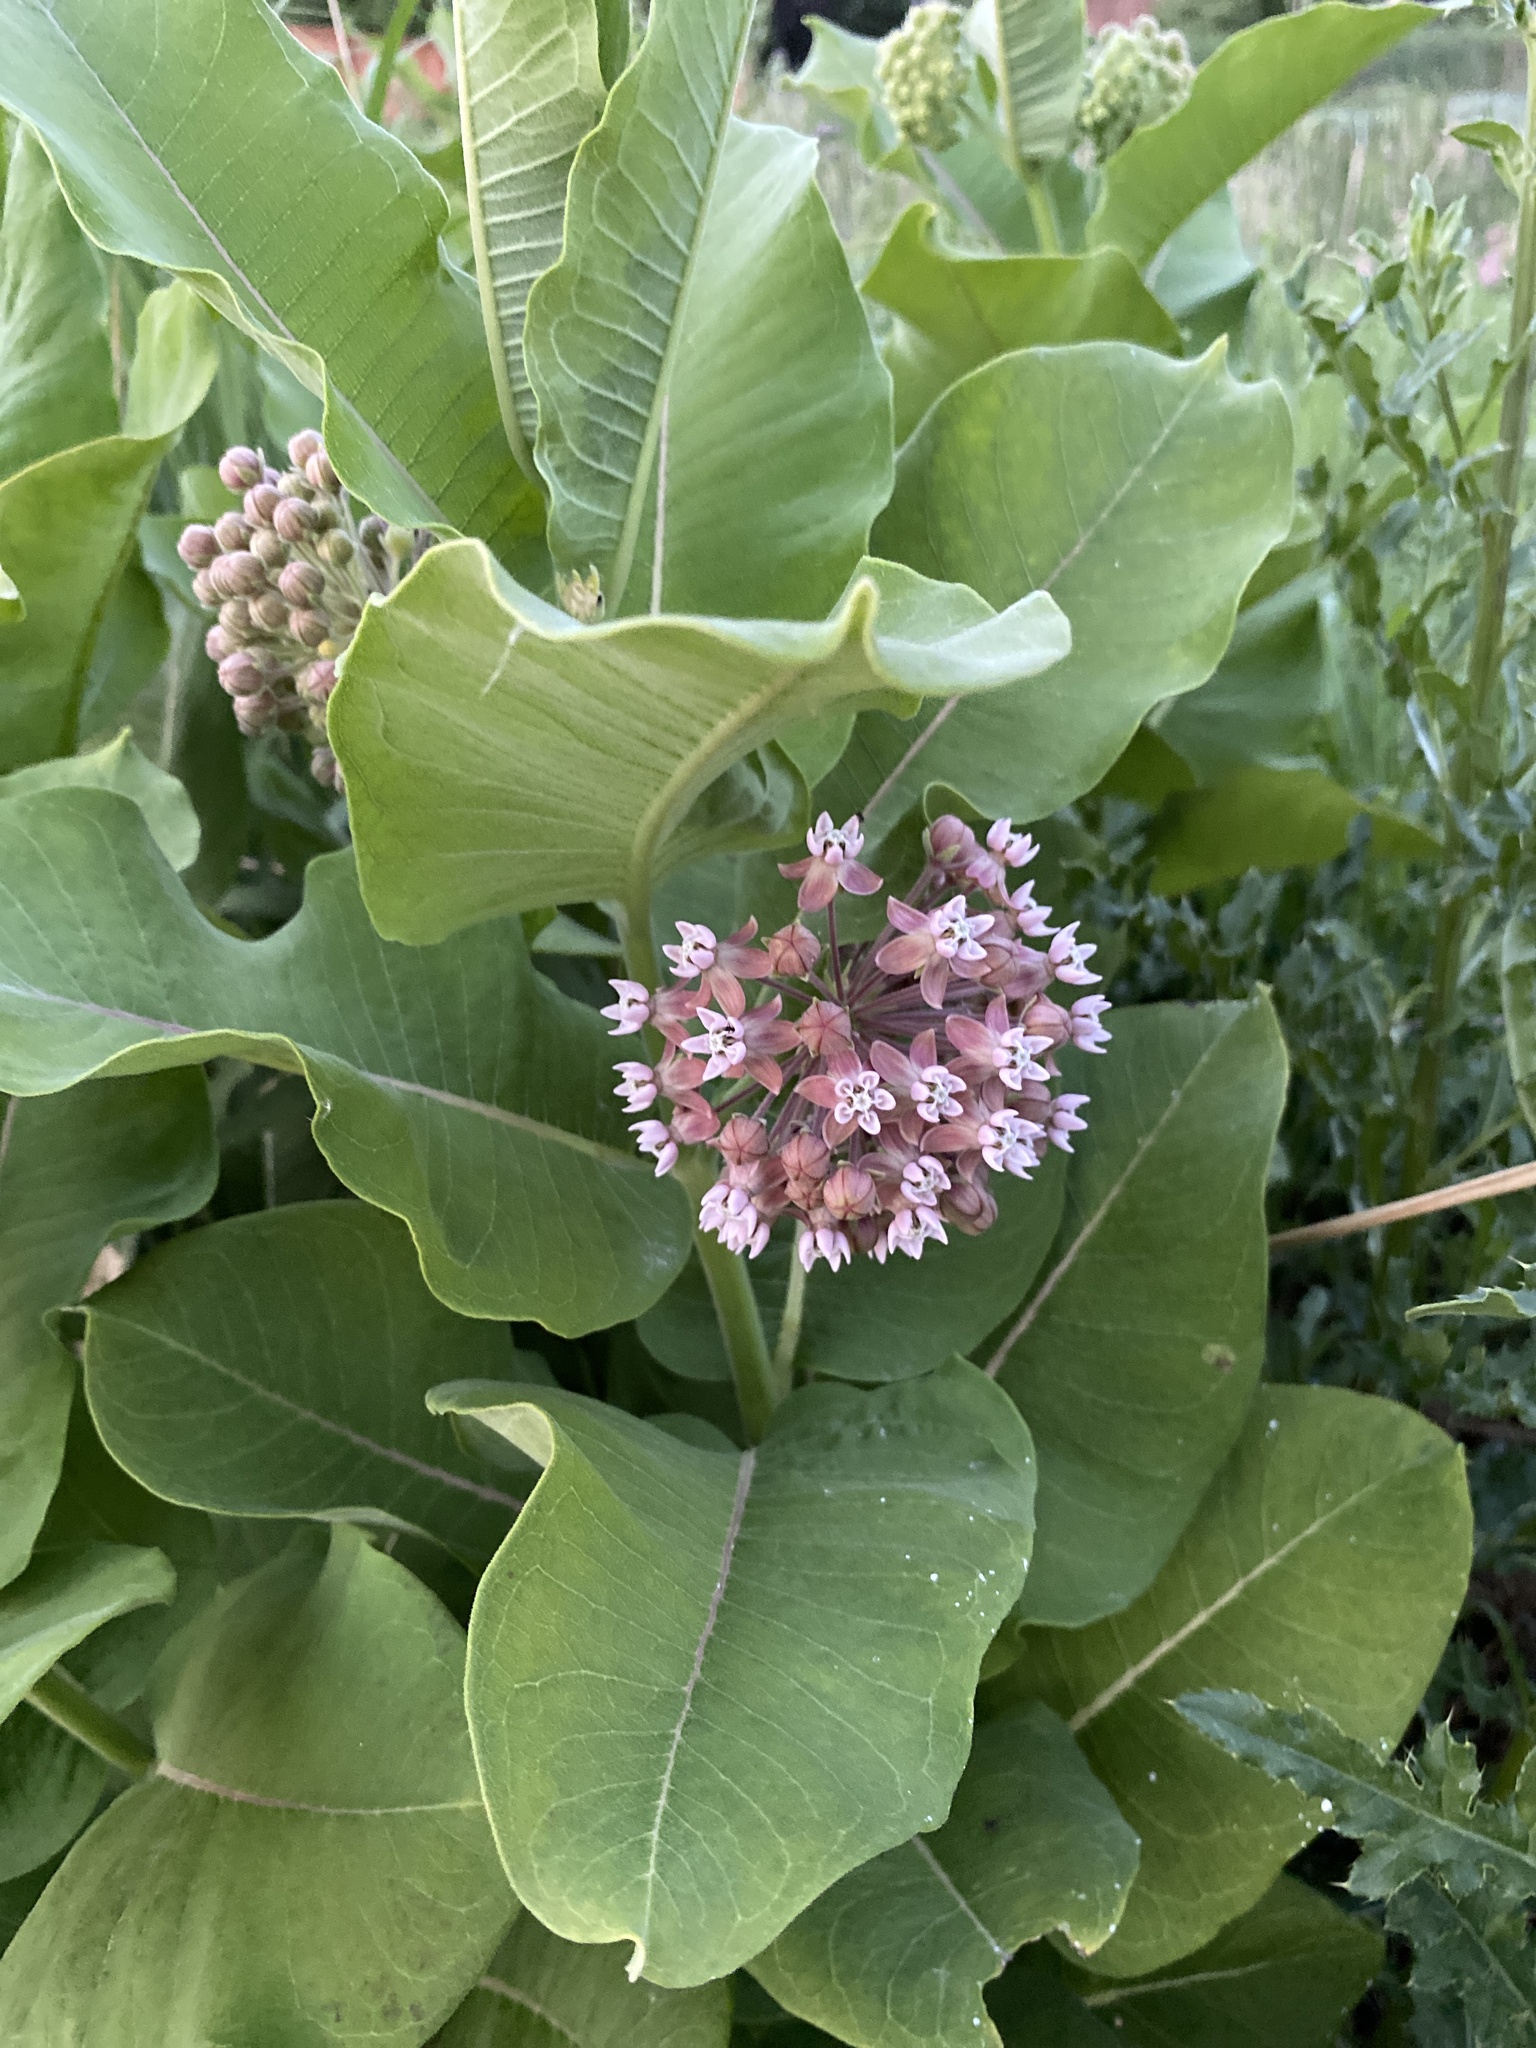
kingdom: Plantae
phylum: Tracheophyta
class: Magnoliopsida
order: Gentianales
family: Apocynaceae
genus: Asclepias
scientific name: Asclepias syriaca
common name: Common milkweed
